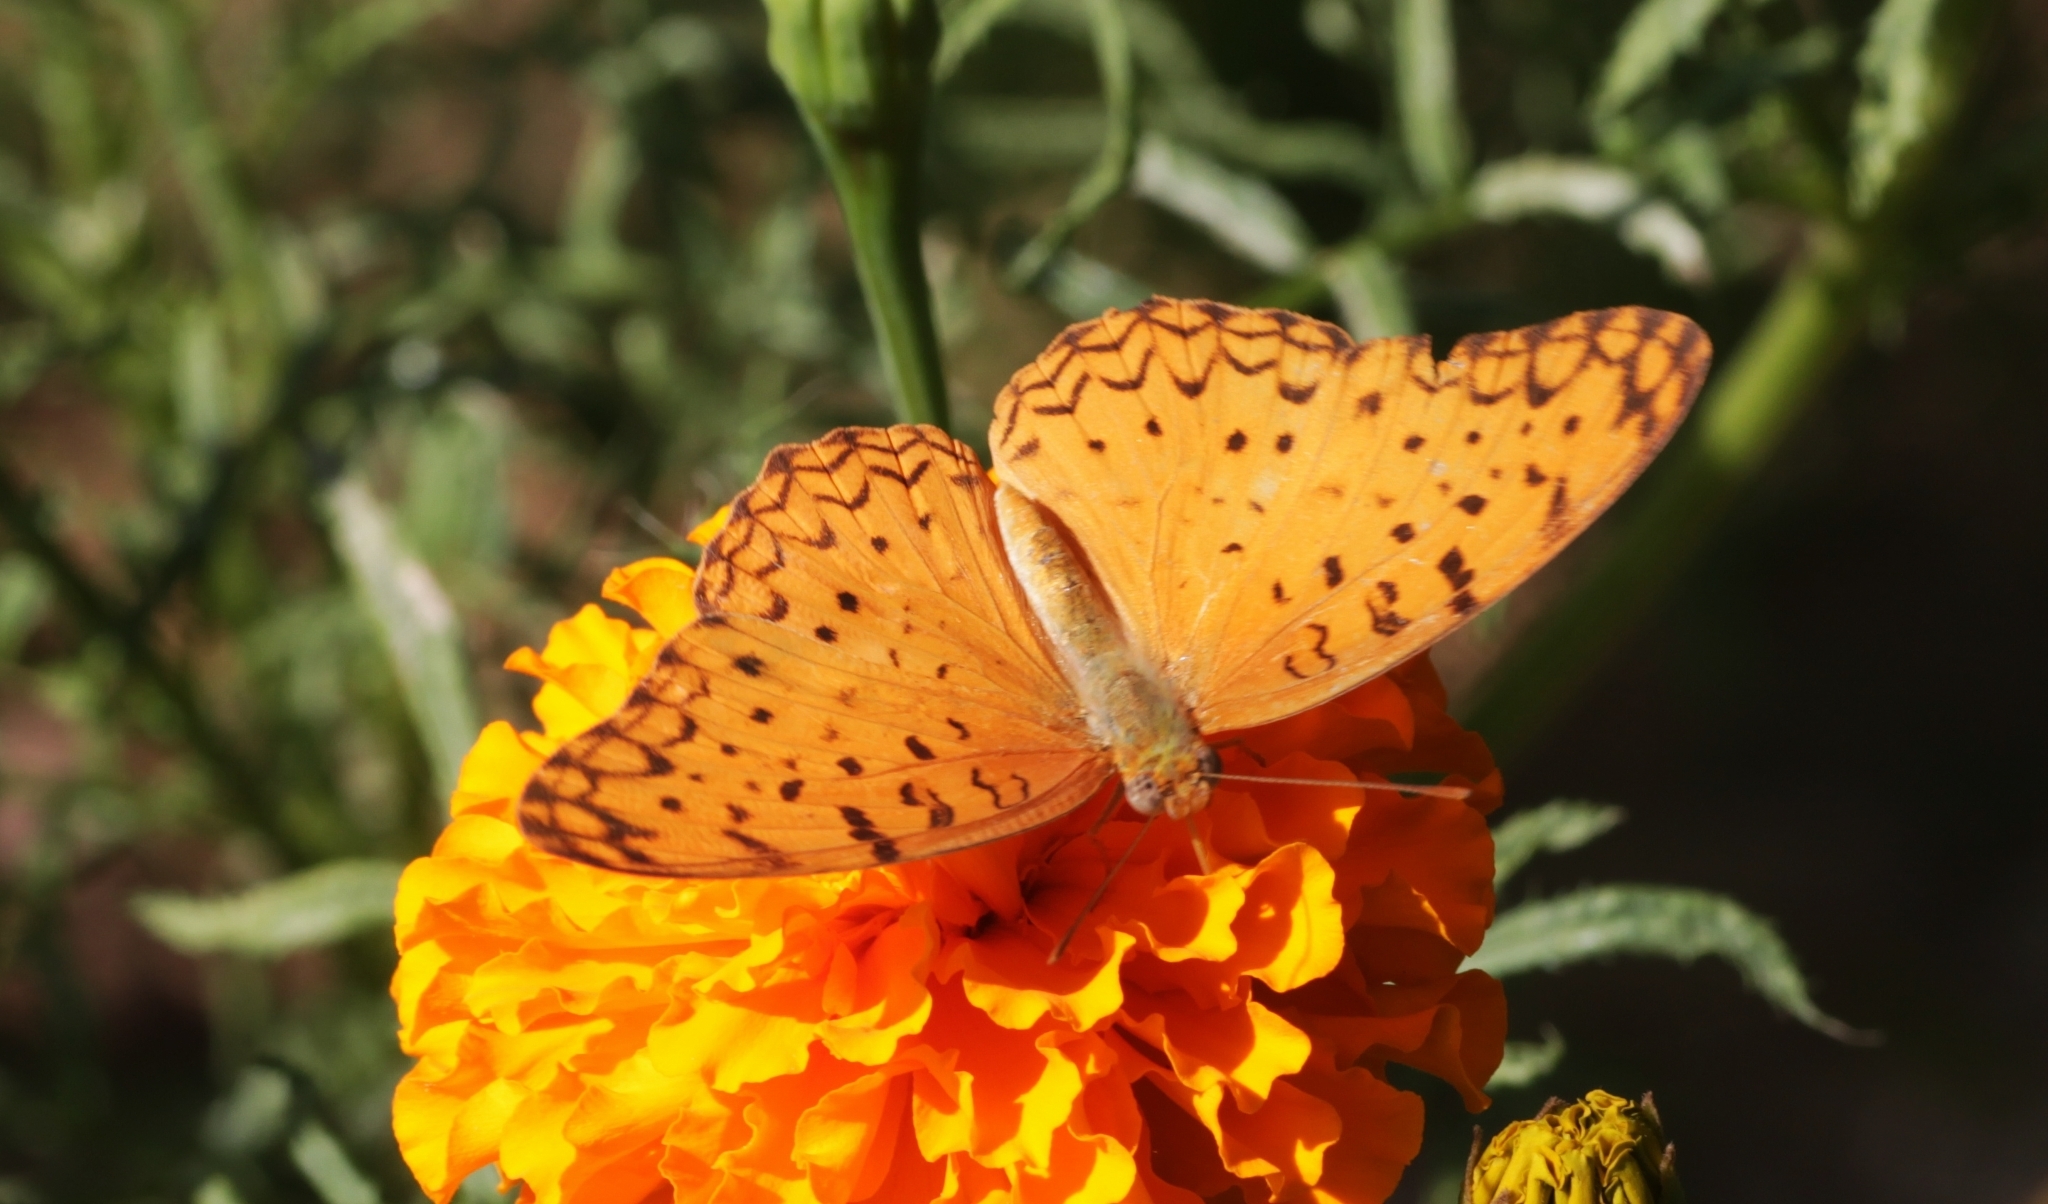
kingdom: Animalia
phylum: Arthropoda
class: Insecta
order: Lepidoptera
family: Nymphalidae
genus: Phalanta
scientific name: Phalanta phalantha
